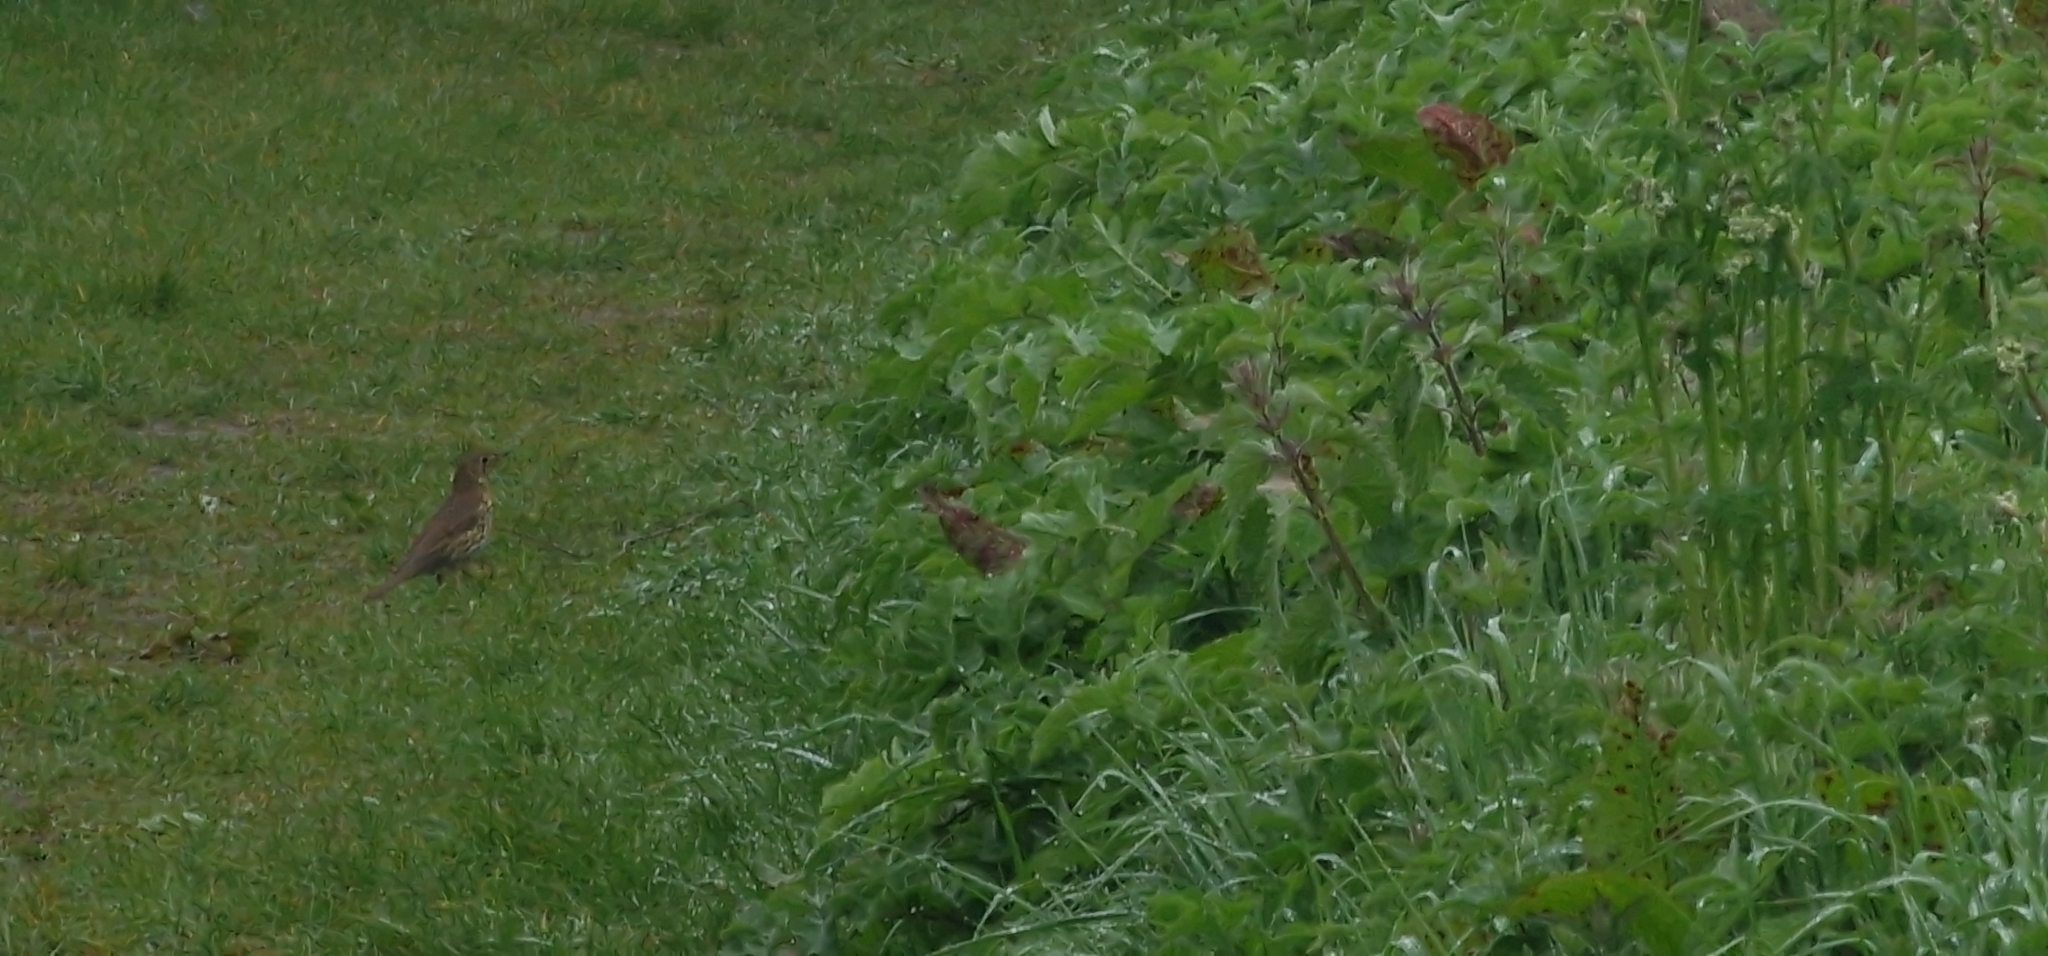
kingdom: Animalia
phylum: Chordata
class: Aves
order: Passeriformes
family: Turdidae
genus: Turdus
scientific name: Turdus philomelos
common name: Song thrush
